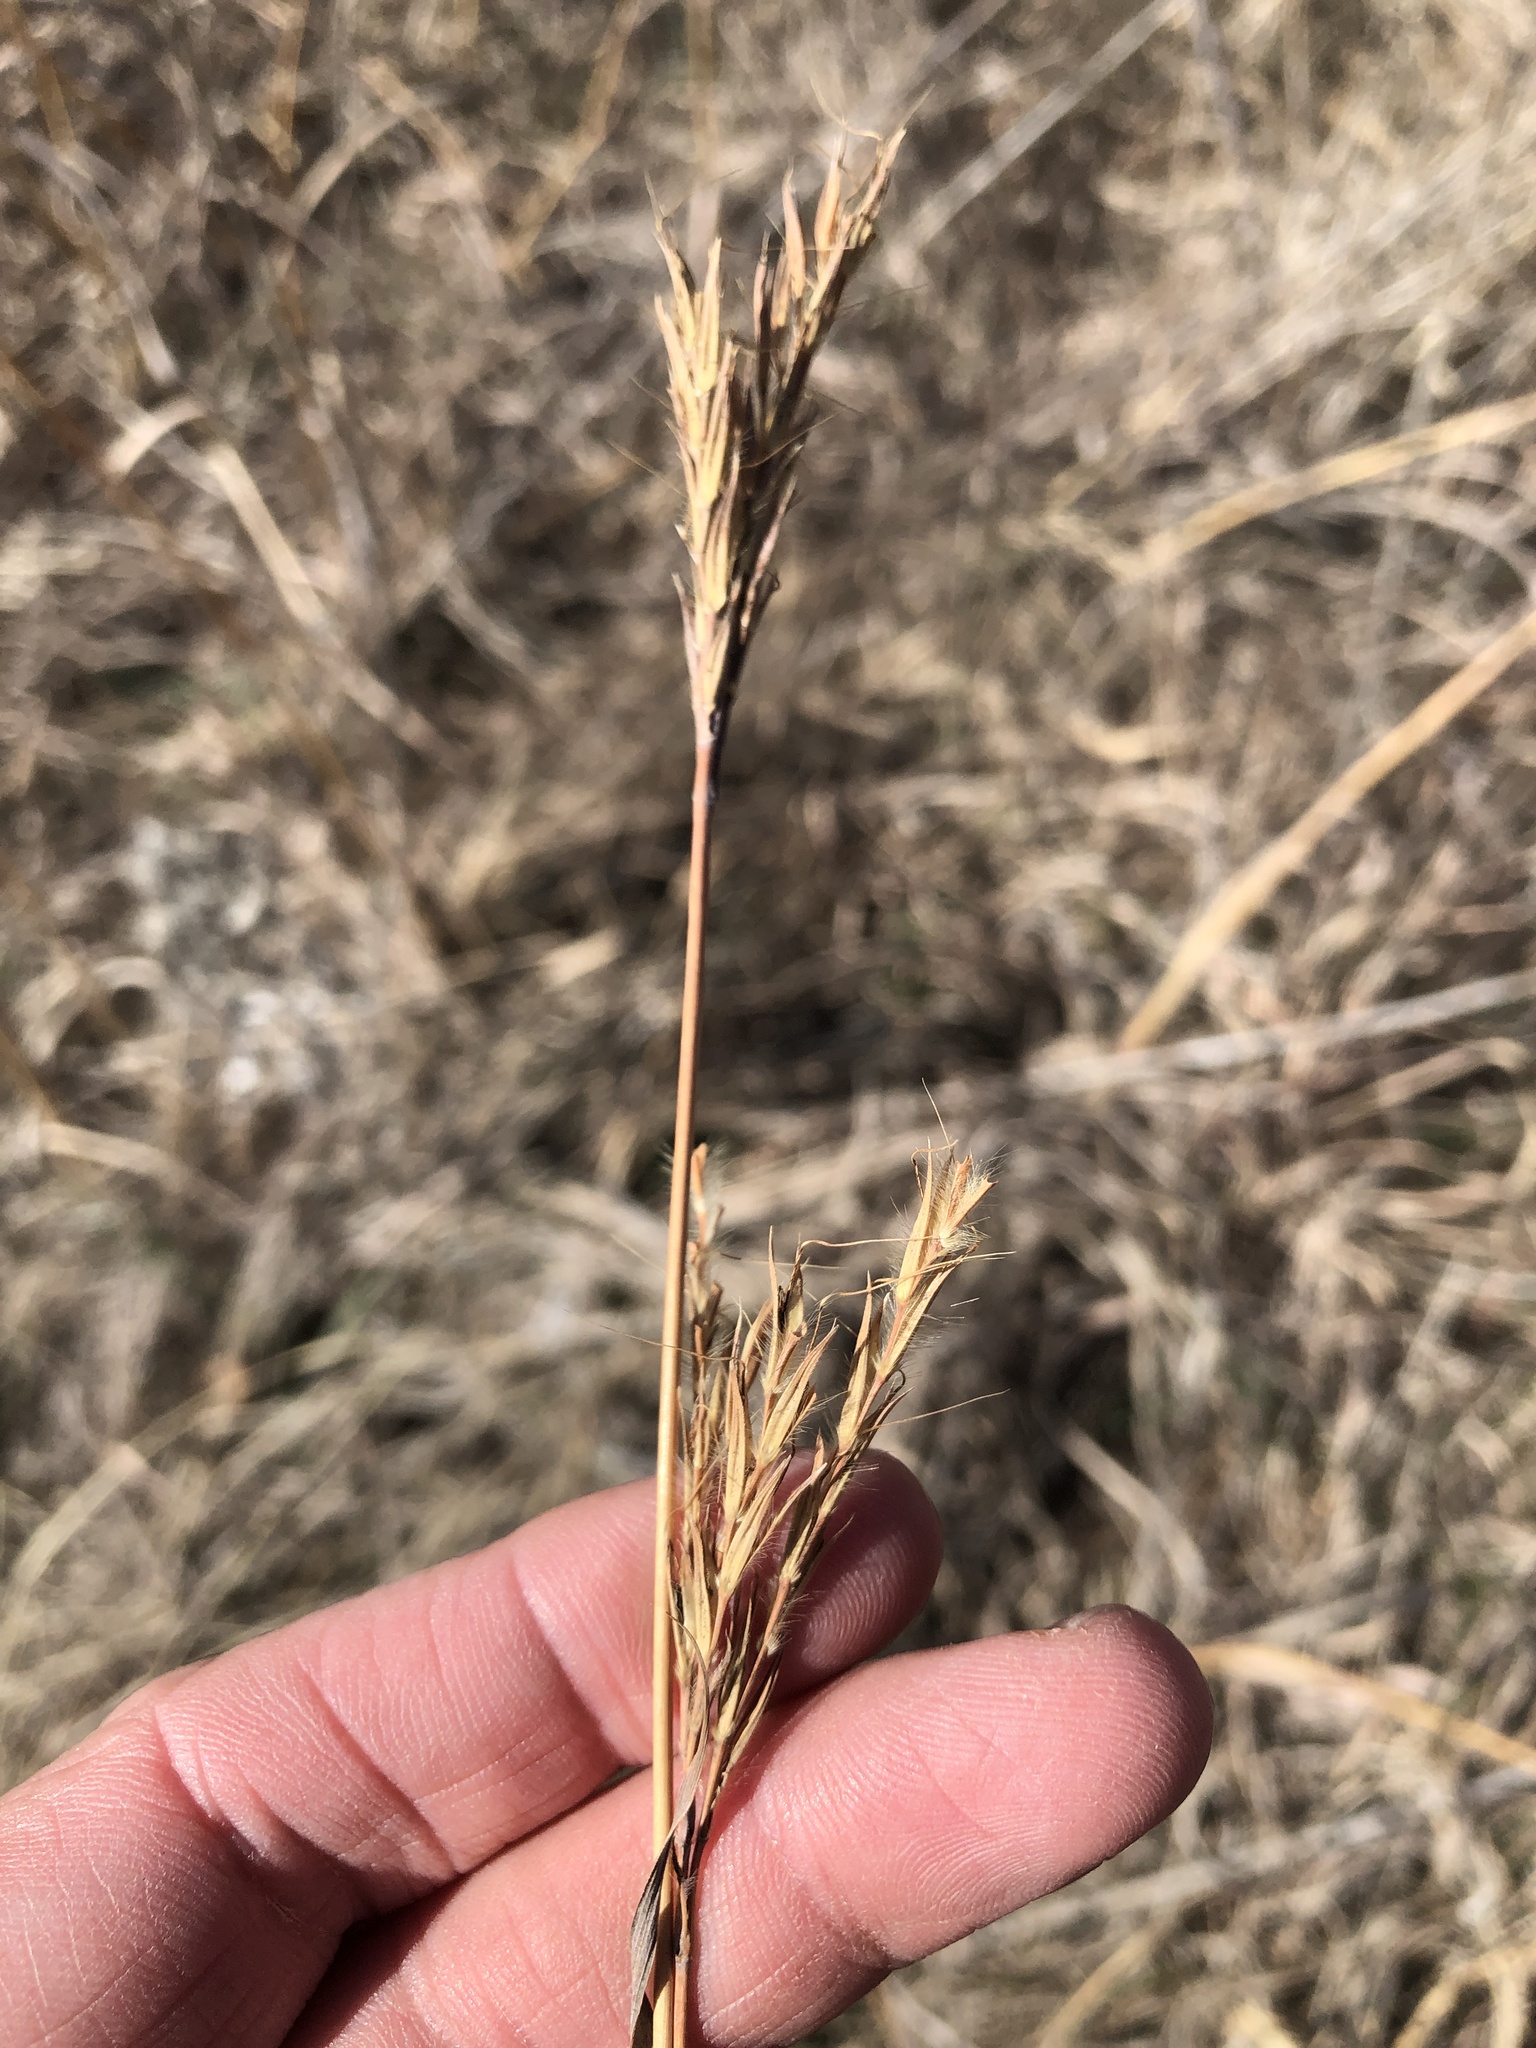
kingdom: Plantae
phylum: Tracheophyta
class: Liliopsida
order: Poales
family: Poaceae
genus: Andropogon
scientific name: Andropogon gerardi
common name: Big bluestem
